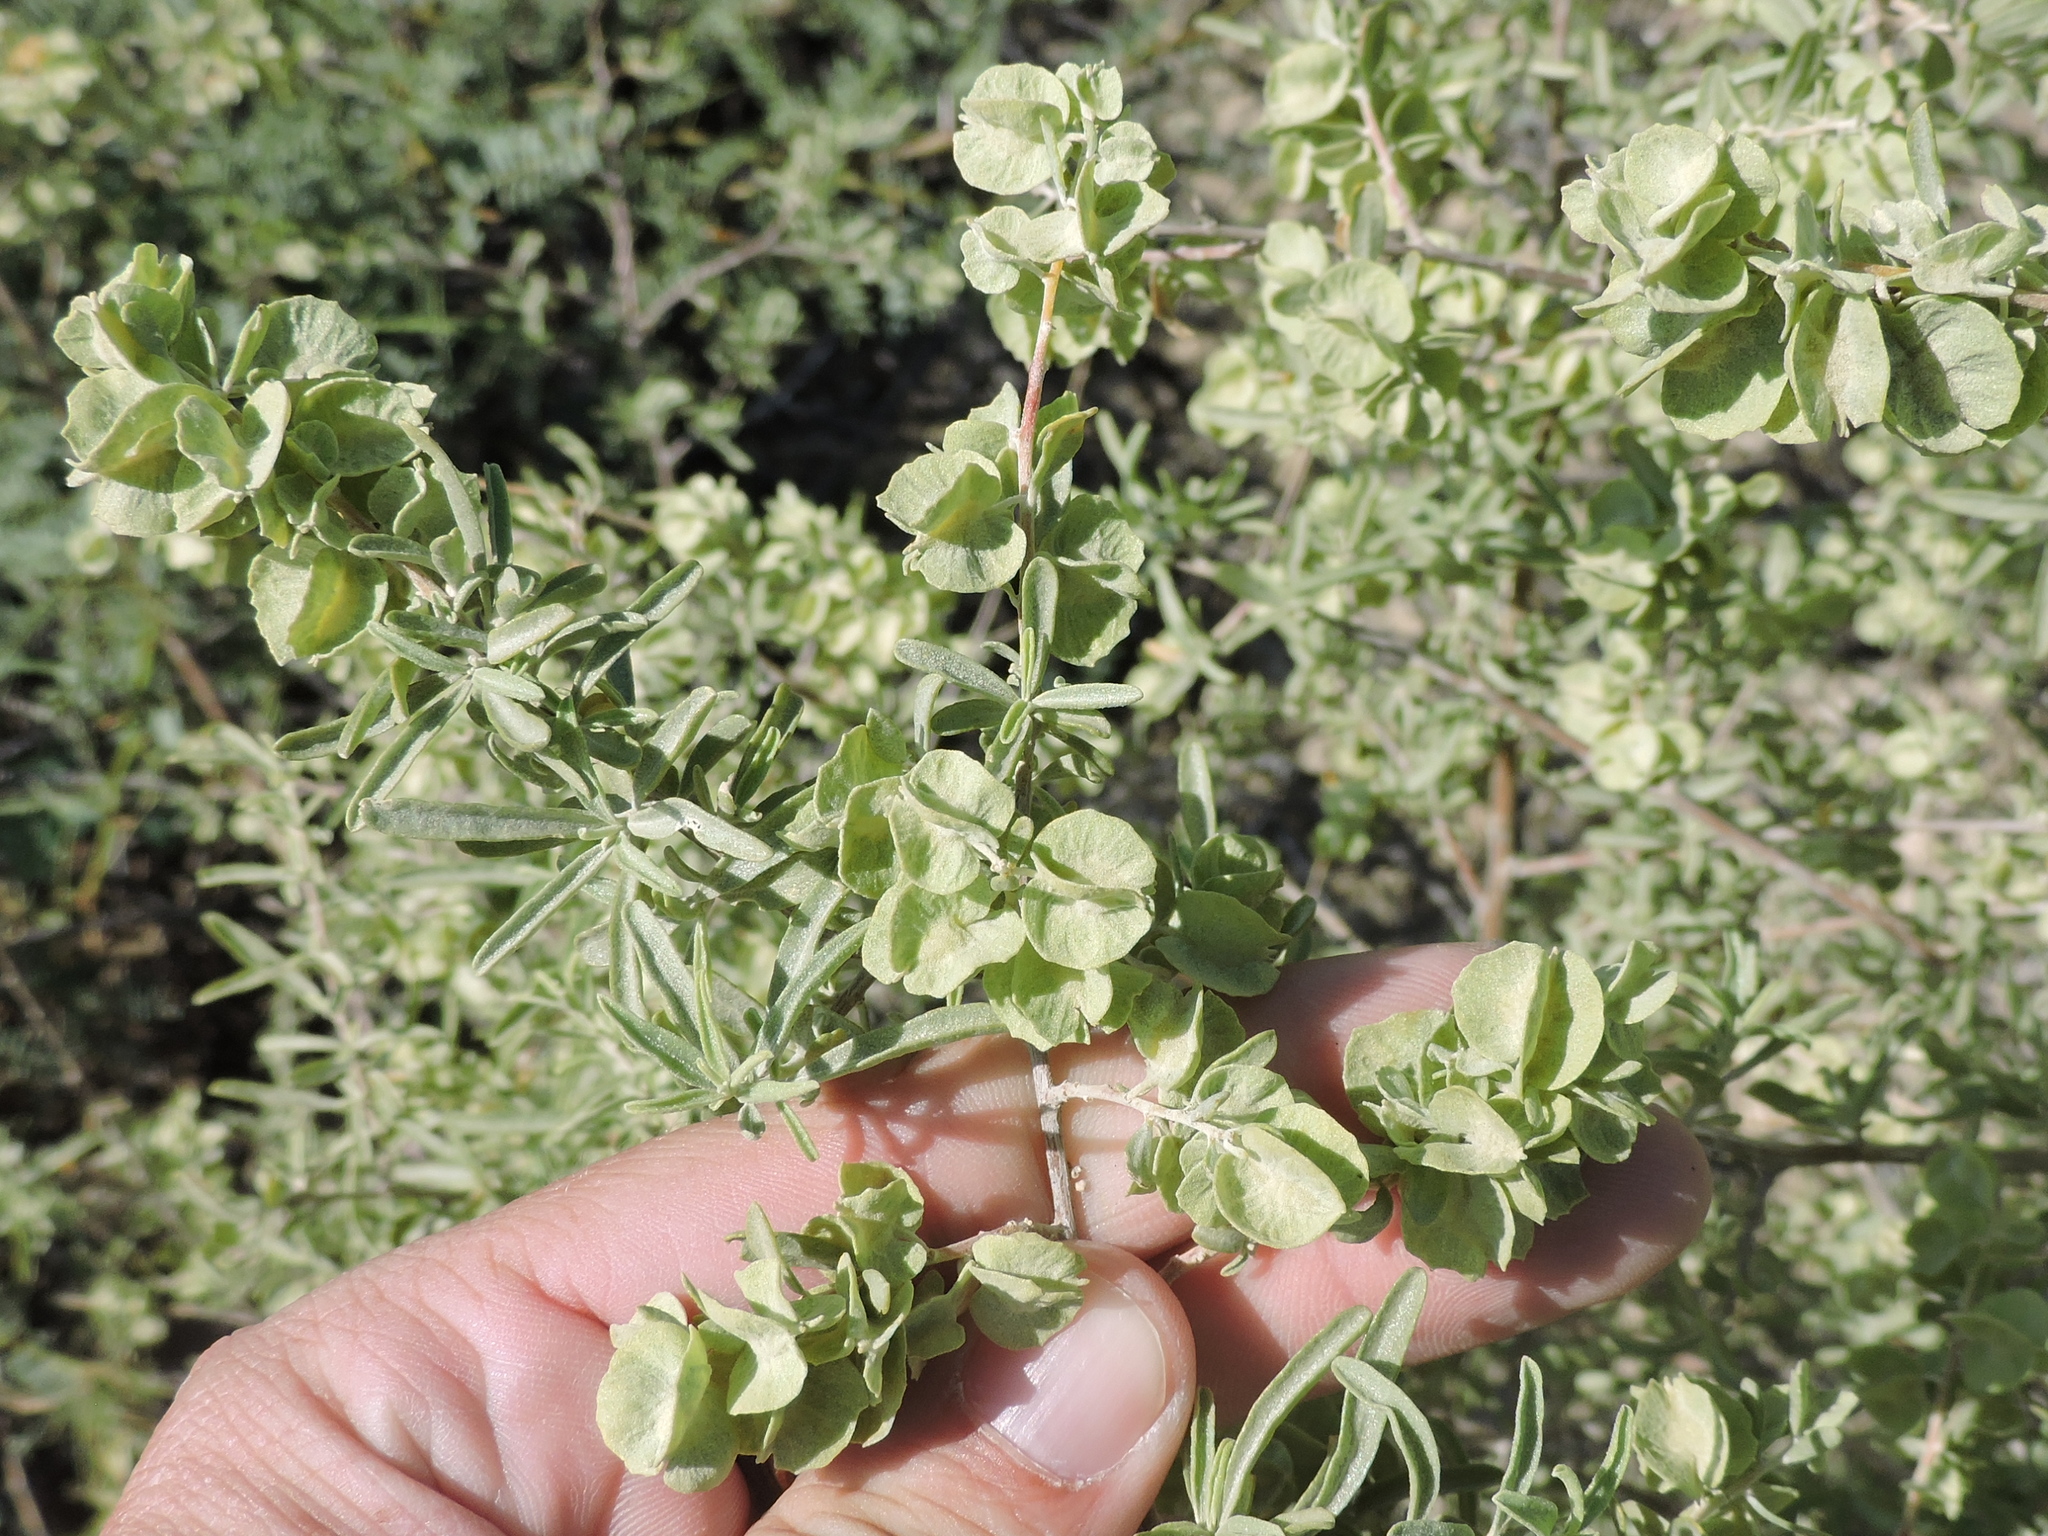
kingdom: Plantae
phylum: Tracheophyta
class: Magnoliopsida
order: Caryophyllales
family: Amaranthaceae
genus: Atriplex
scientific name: Atriplex canescens
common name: Four-wing saltbush
